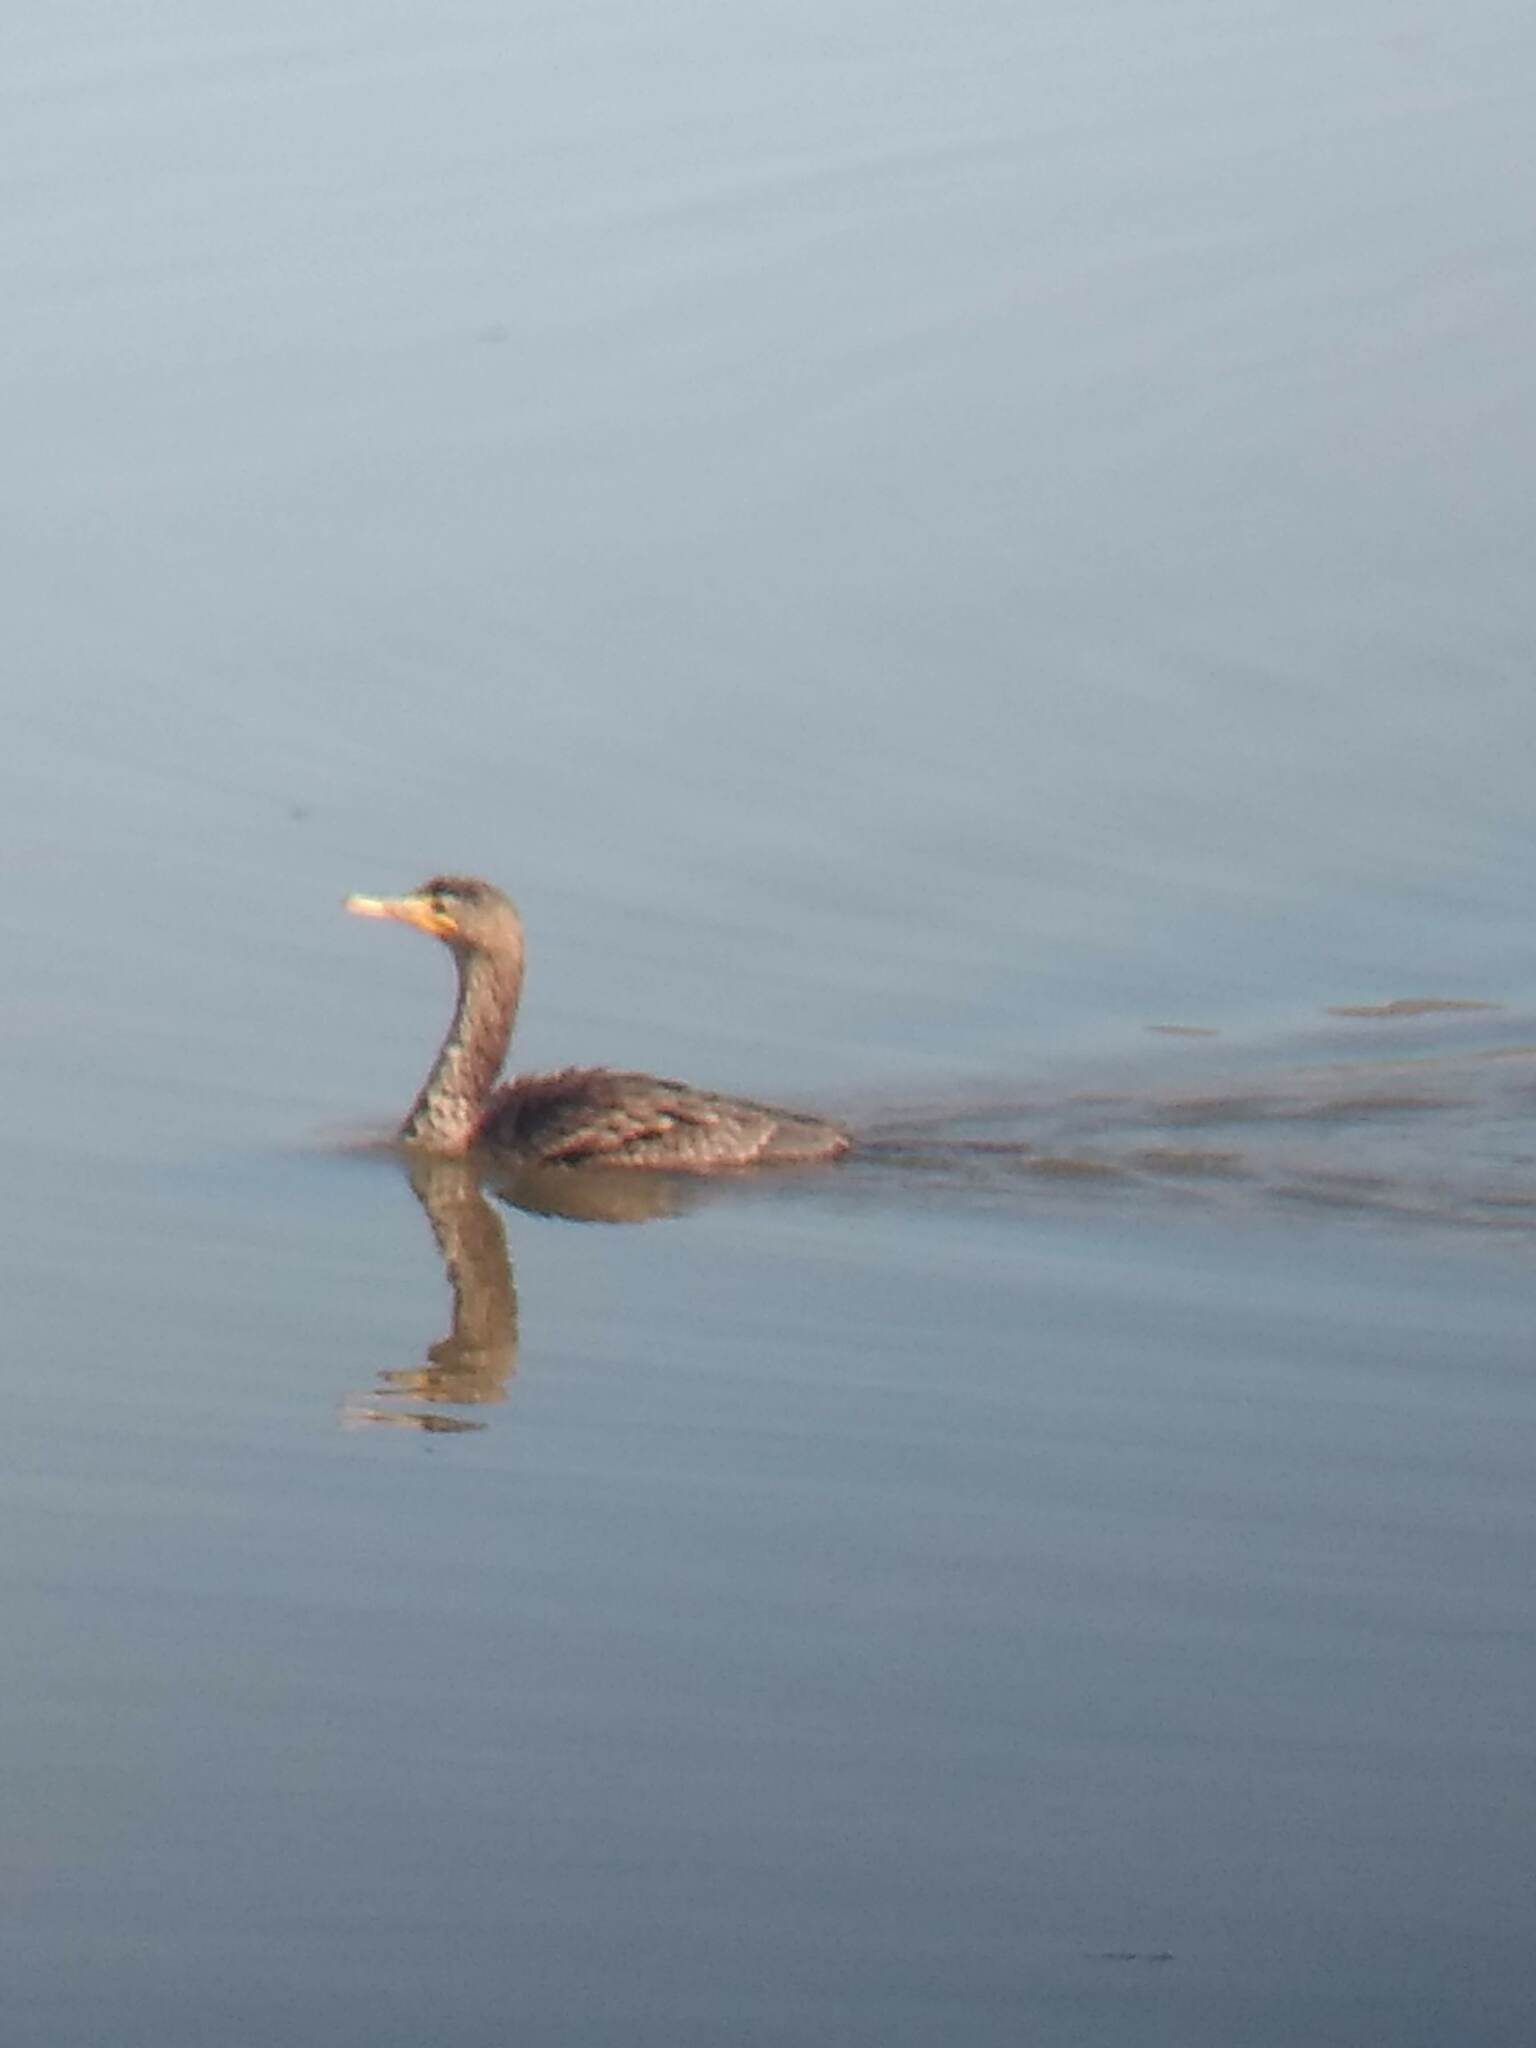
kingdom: Animalia
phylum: Chordata
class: Aves
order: Suliformes
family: Phalacrocoracidae
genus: Phalacrocorax
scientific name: Phalacrocorax auritus
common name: Double-crested cormorant
